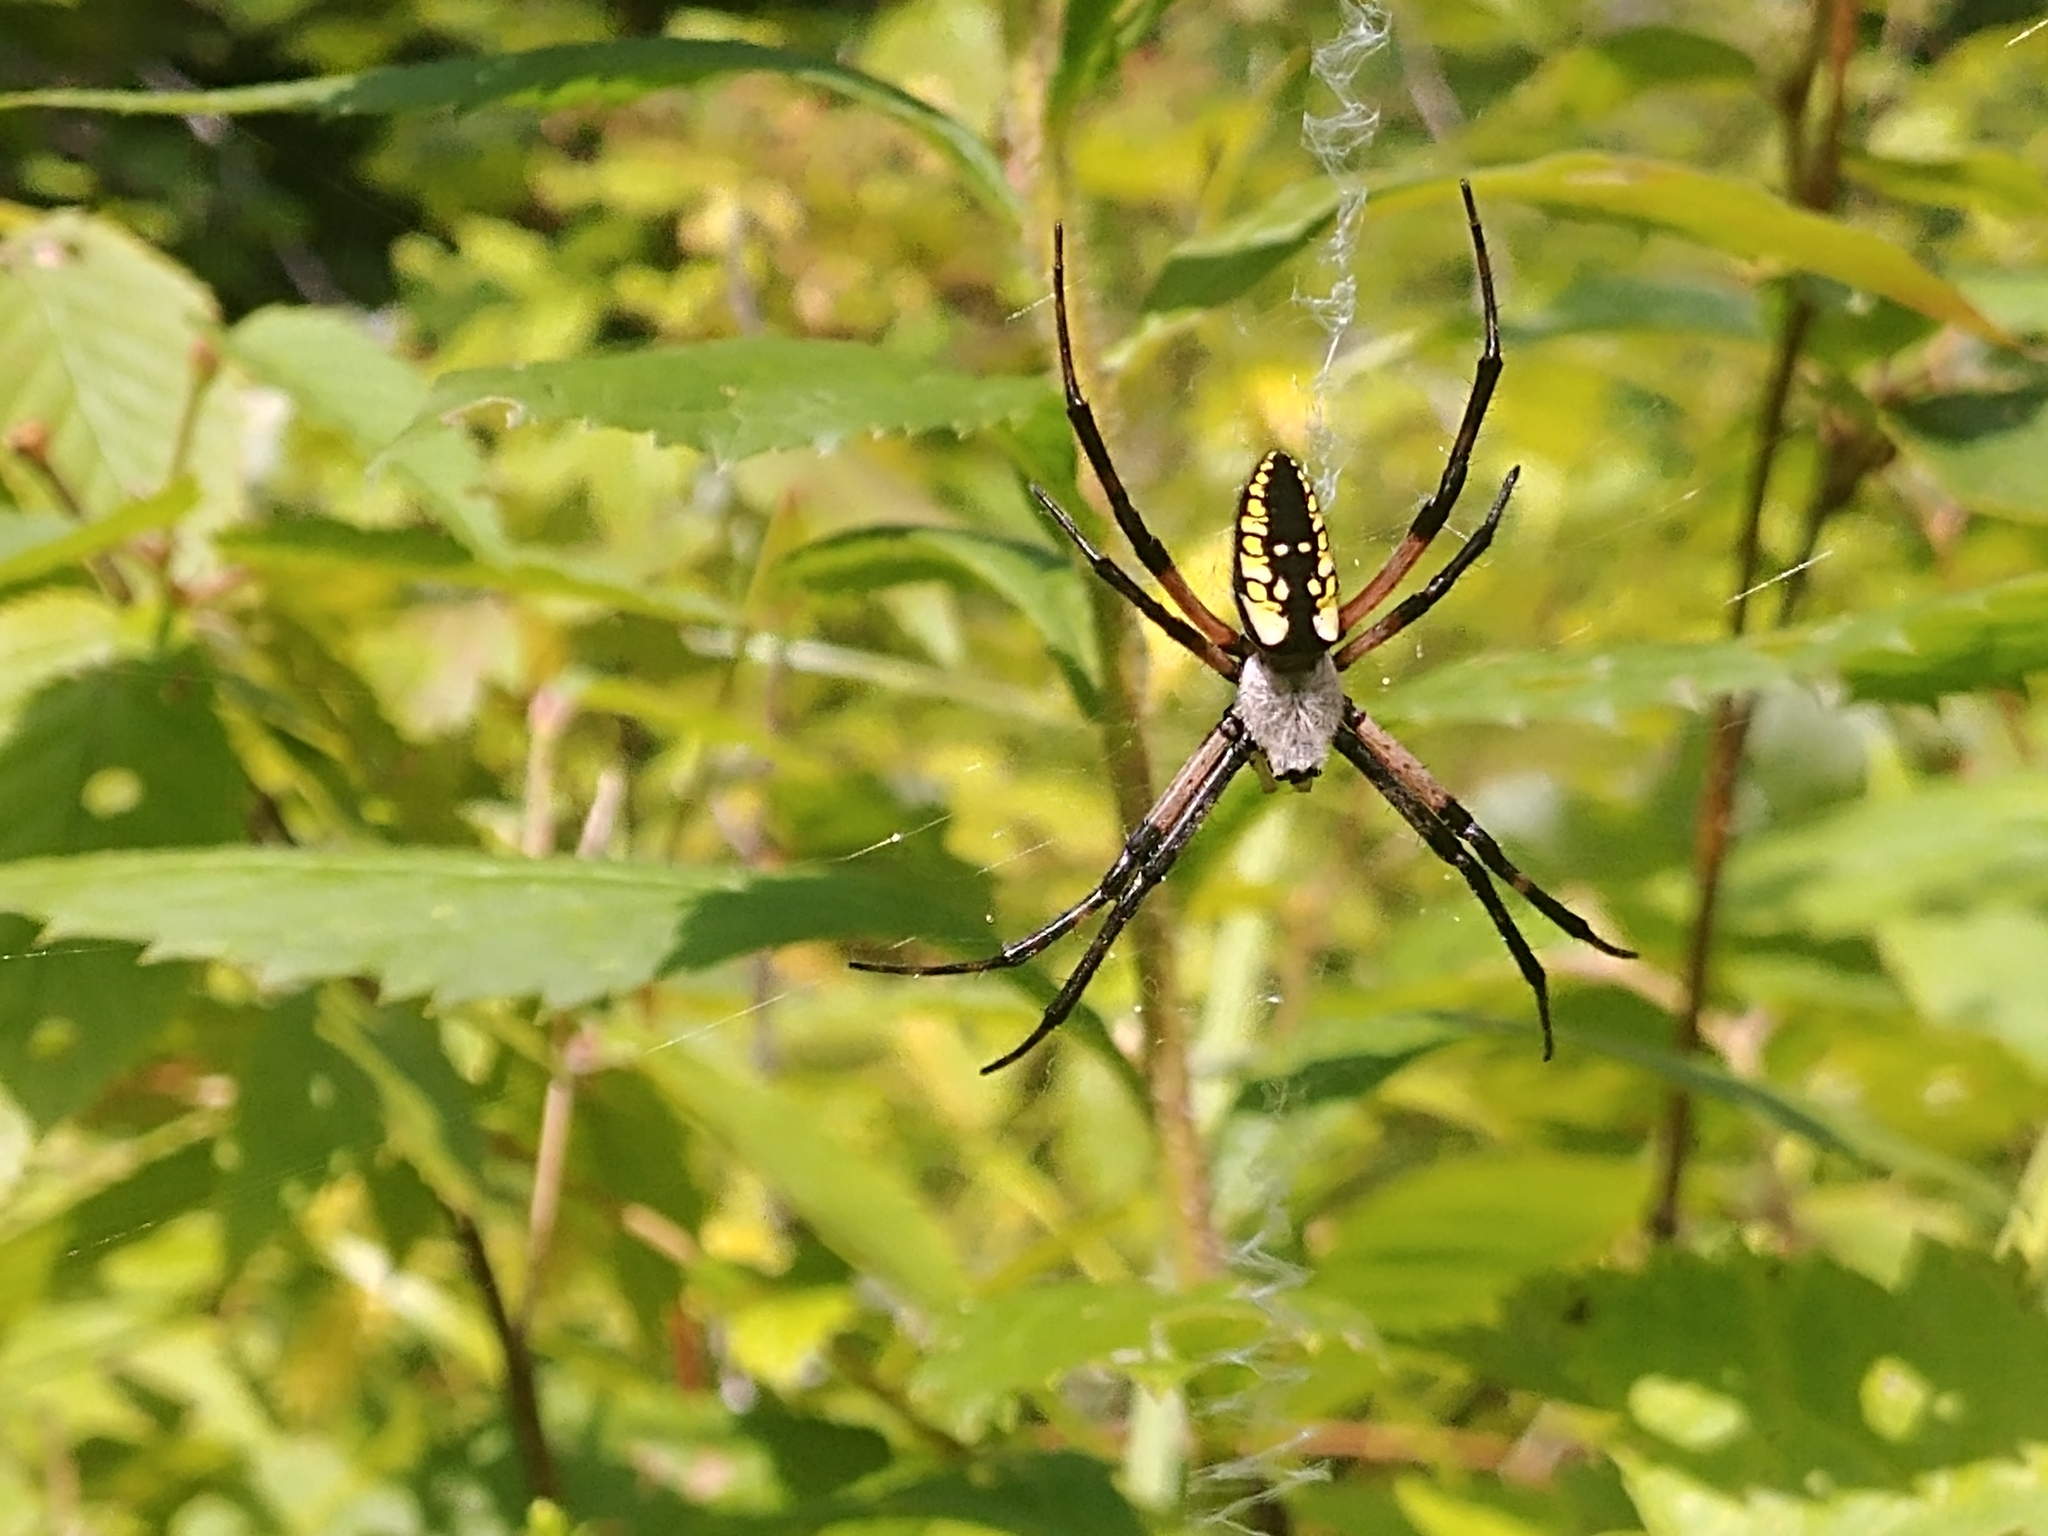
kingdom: Animalia
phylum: Arthropoda
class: Arachnida
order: Araneae
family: Araneidae
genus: Argiope
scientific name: Argiope aurantia
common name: Orb weavers
